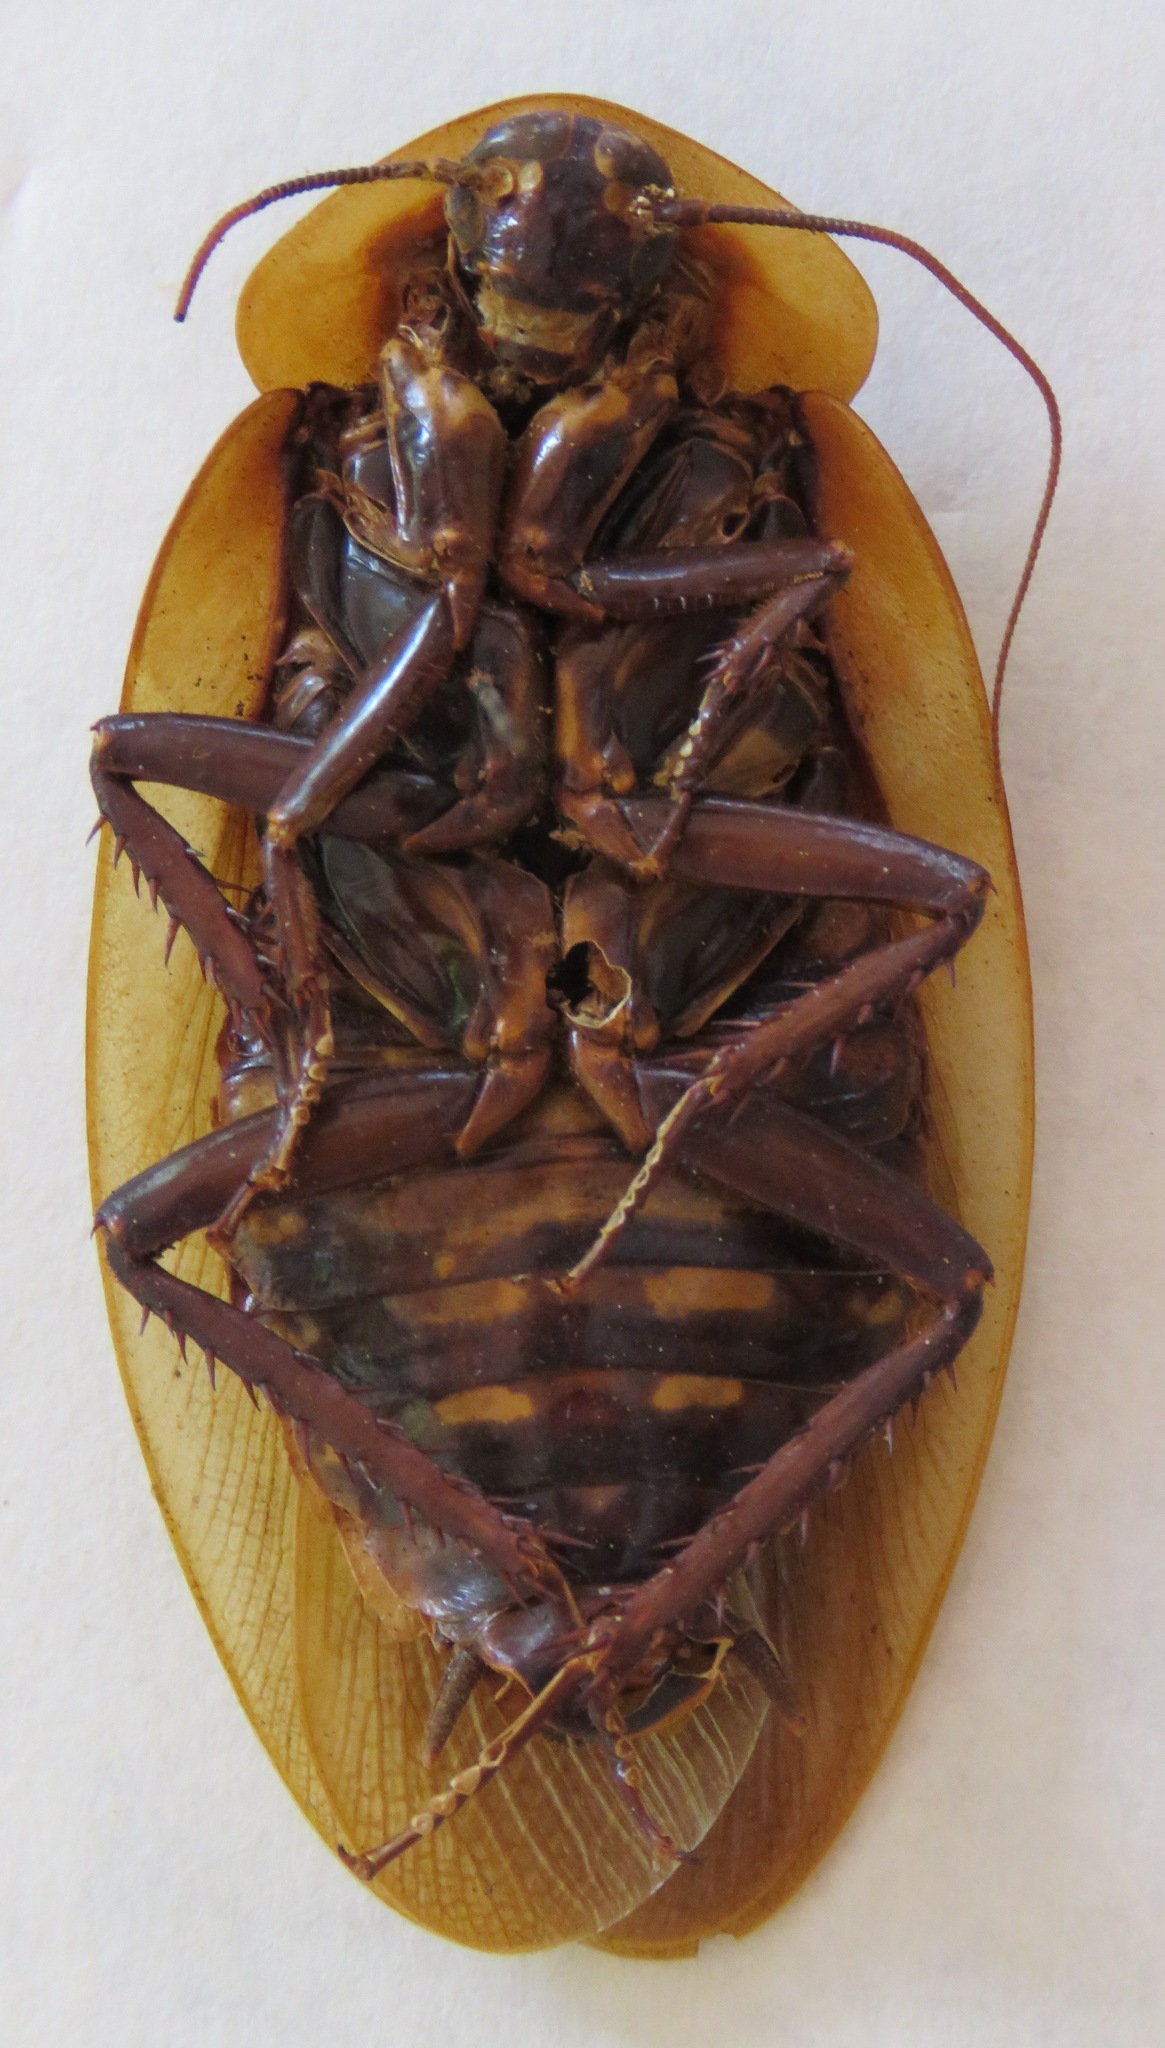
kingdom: Animalia
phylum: Arthropoda
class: Insecta
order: Blattodea
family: Blaberidae
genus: Blaberus
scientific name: Blaberus discoidalis
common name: Discoid cockroach
